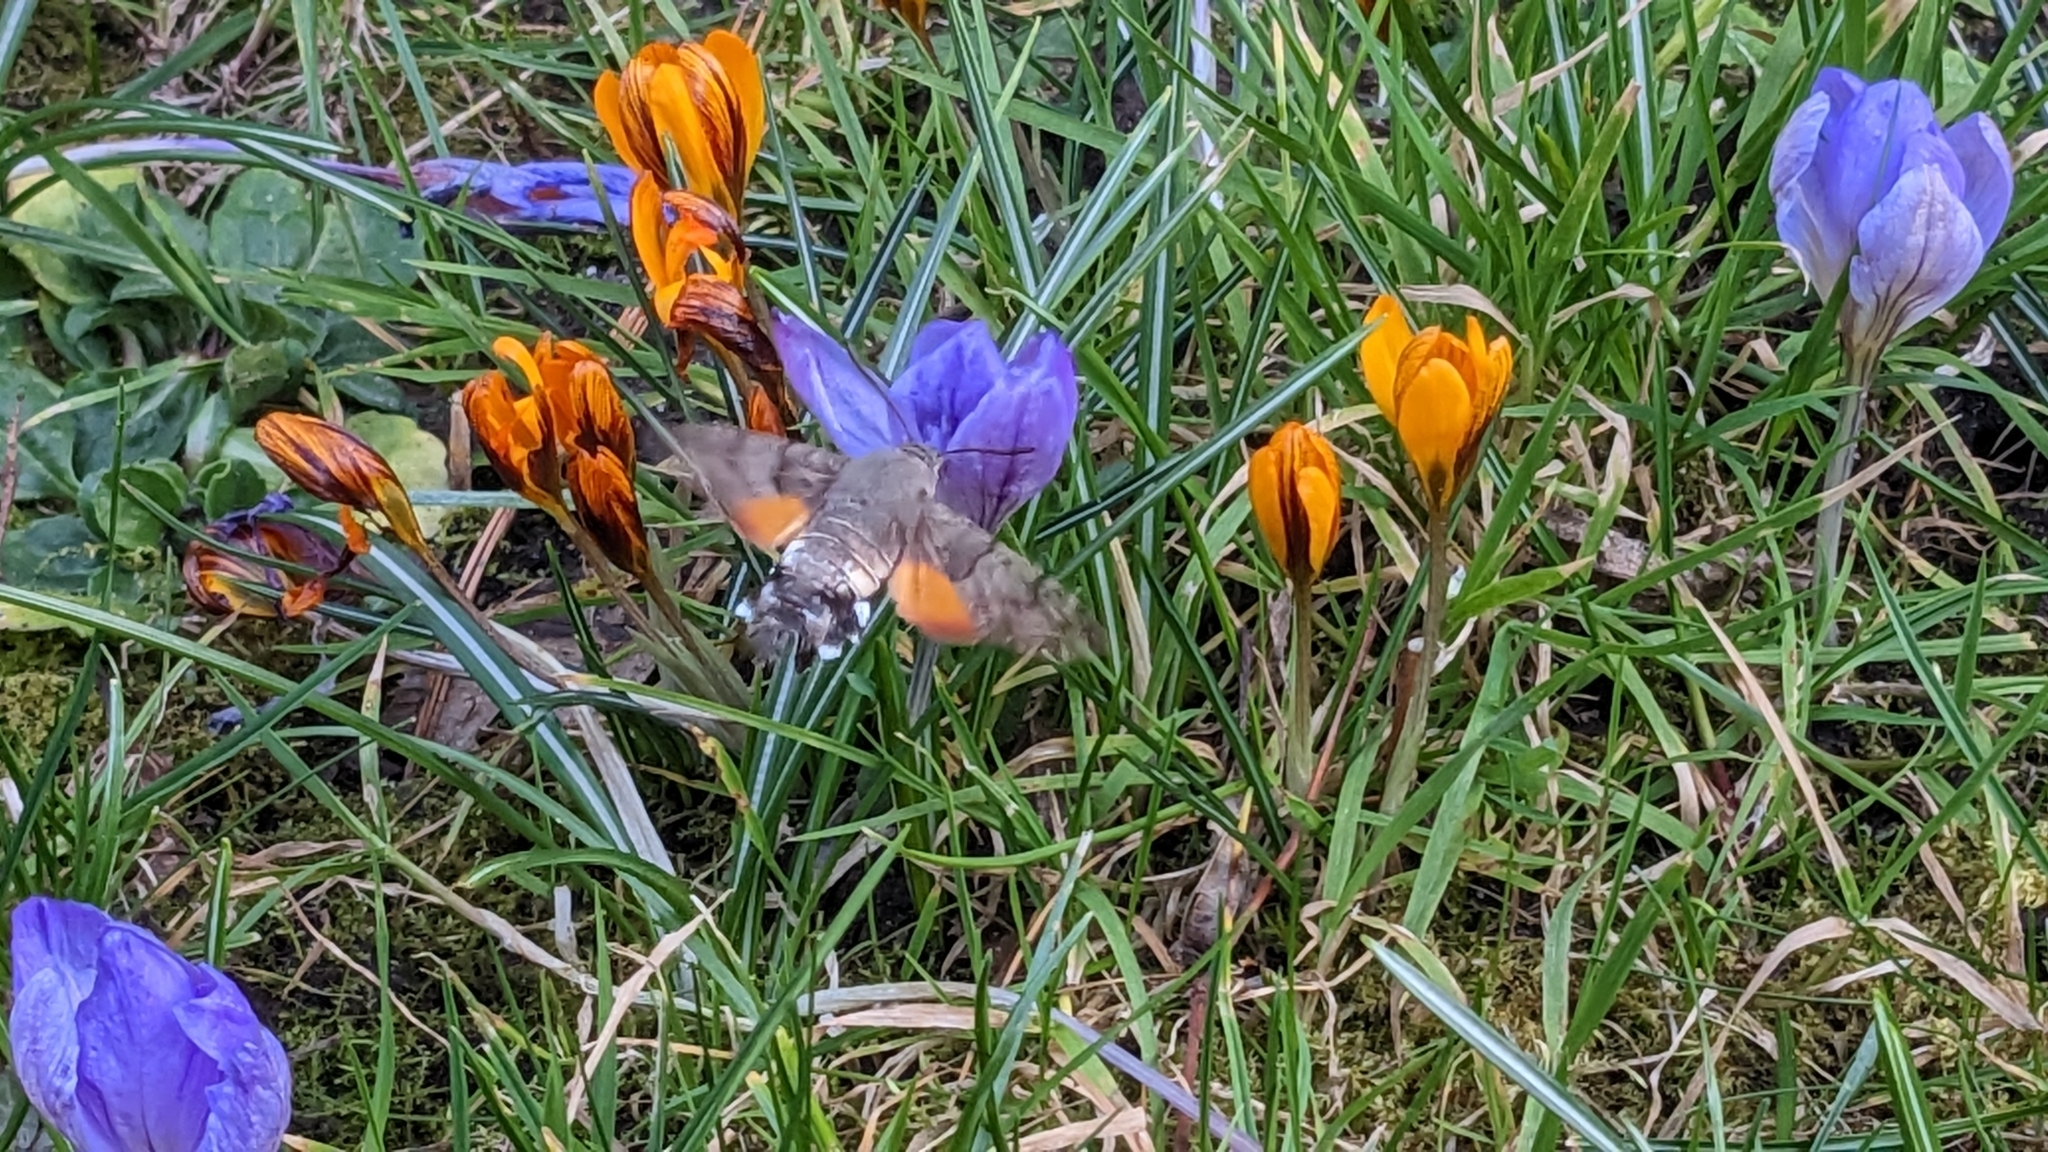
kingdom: Animalia
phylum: Arthropoda
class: Insecta
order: Lepidoptera
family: Sphingidae
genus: Macroglossum
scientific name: Macroglossum stellatarum
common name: Humming-bird hawk-moth
